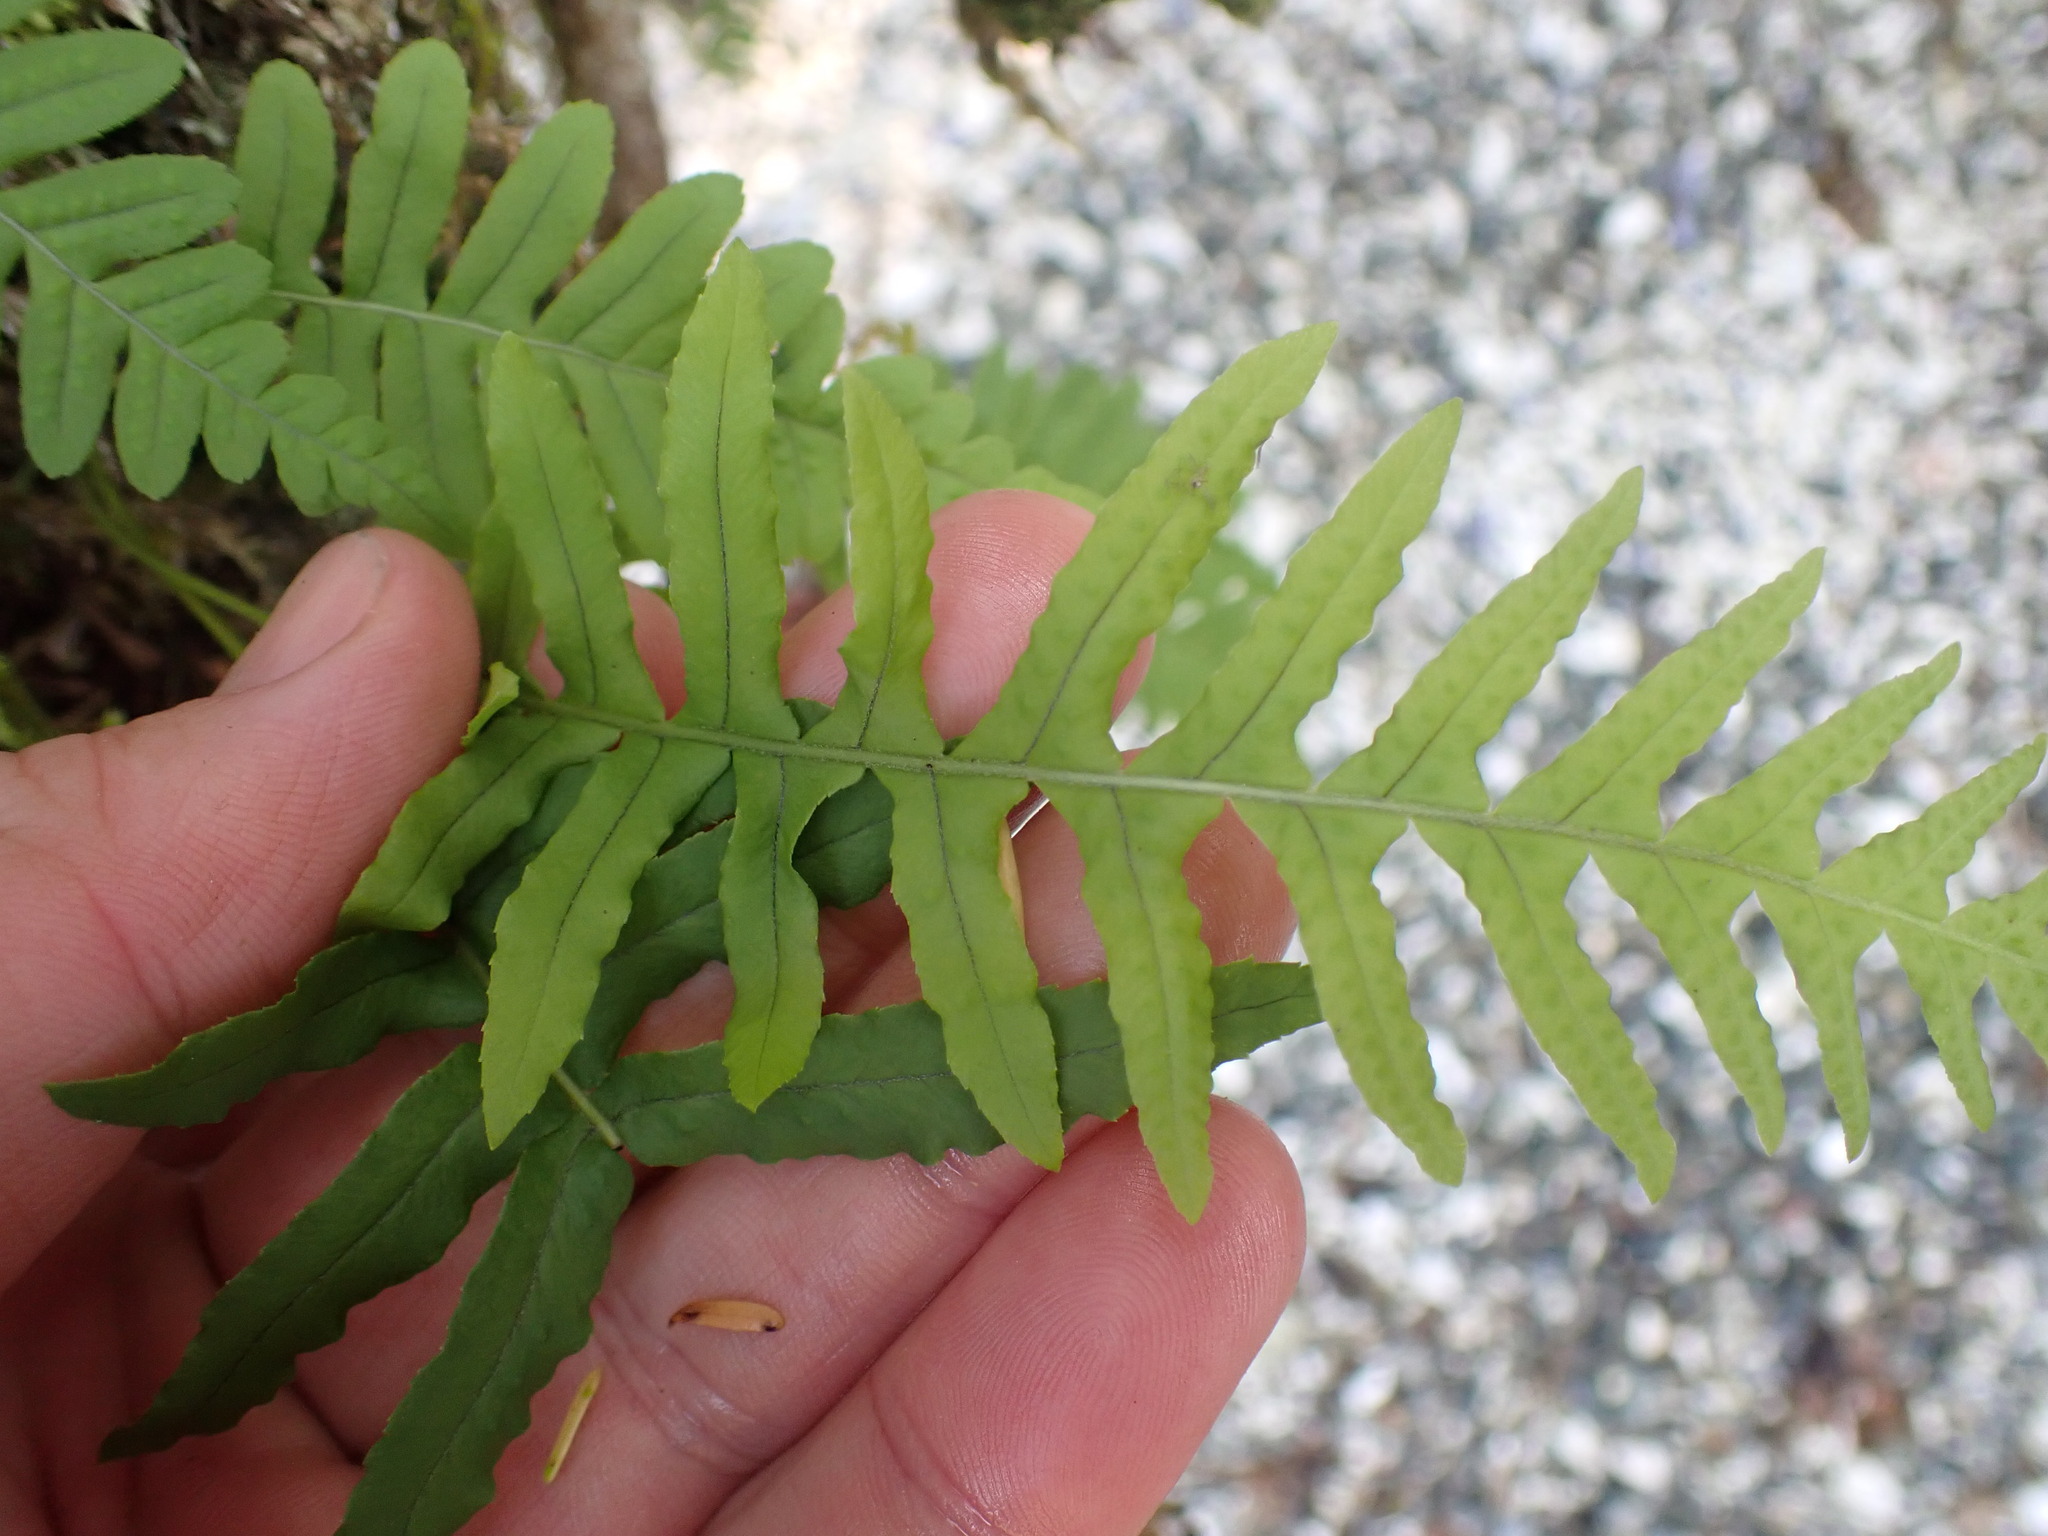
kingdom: Plantae
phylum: Tracheophyta
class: Polypodiopsida
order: Polypodiales
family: Polypodiaceae
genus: Polypodium
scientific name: Polypodium glycyrrhiza
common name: Licorice fern
